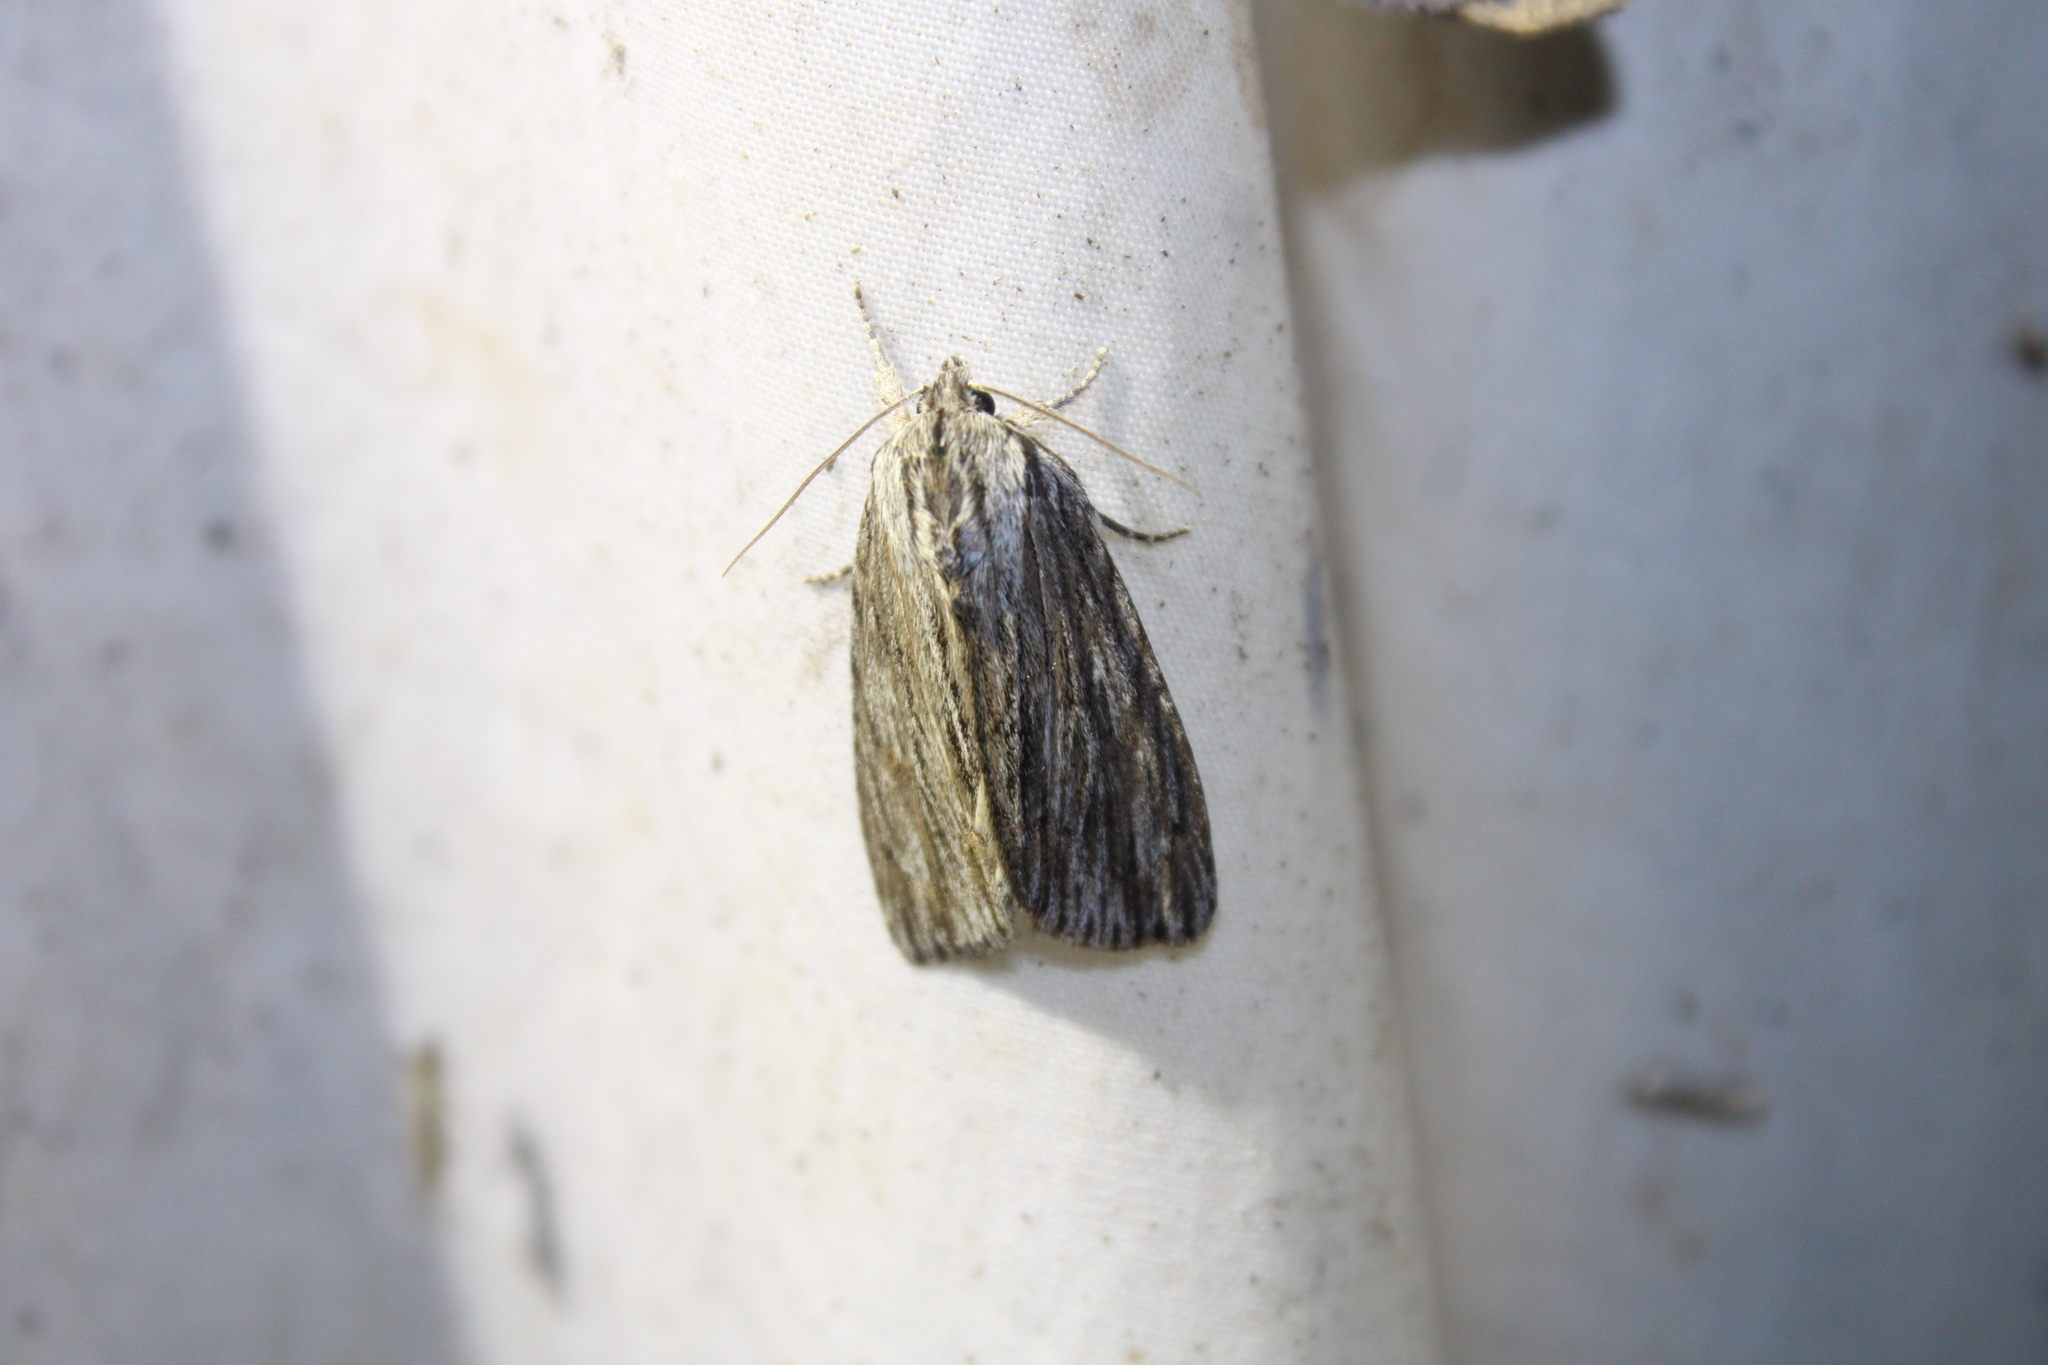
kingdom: Animalia
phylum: Arthropoda
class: Insecta
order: Lepidoptera
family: Noctuidae
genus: Acronicta
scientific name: Acronicta lithospila
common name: Streaked dagger
